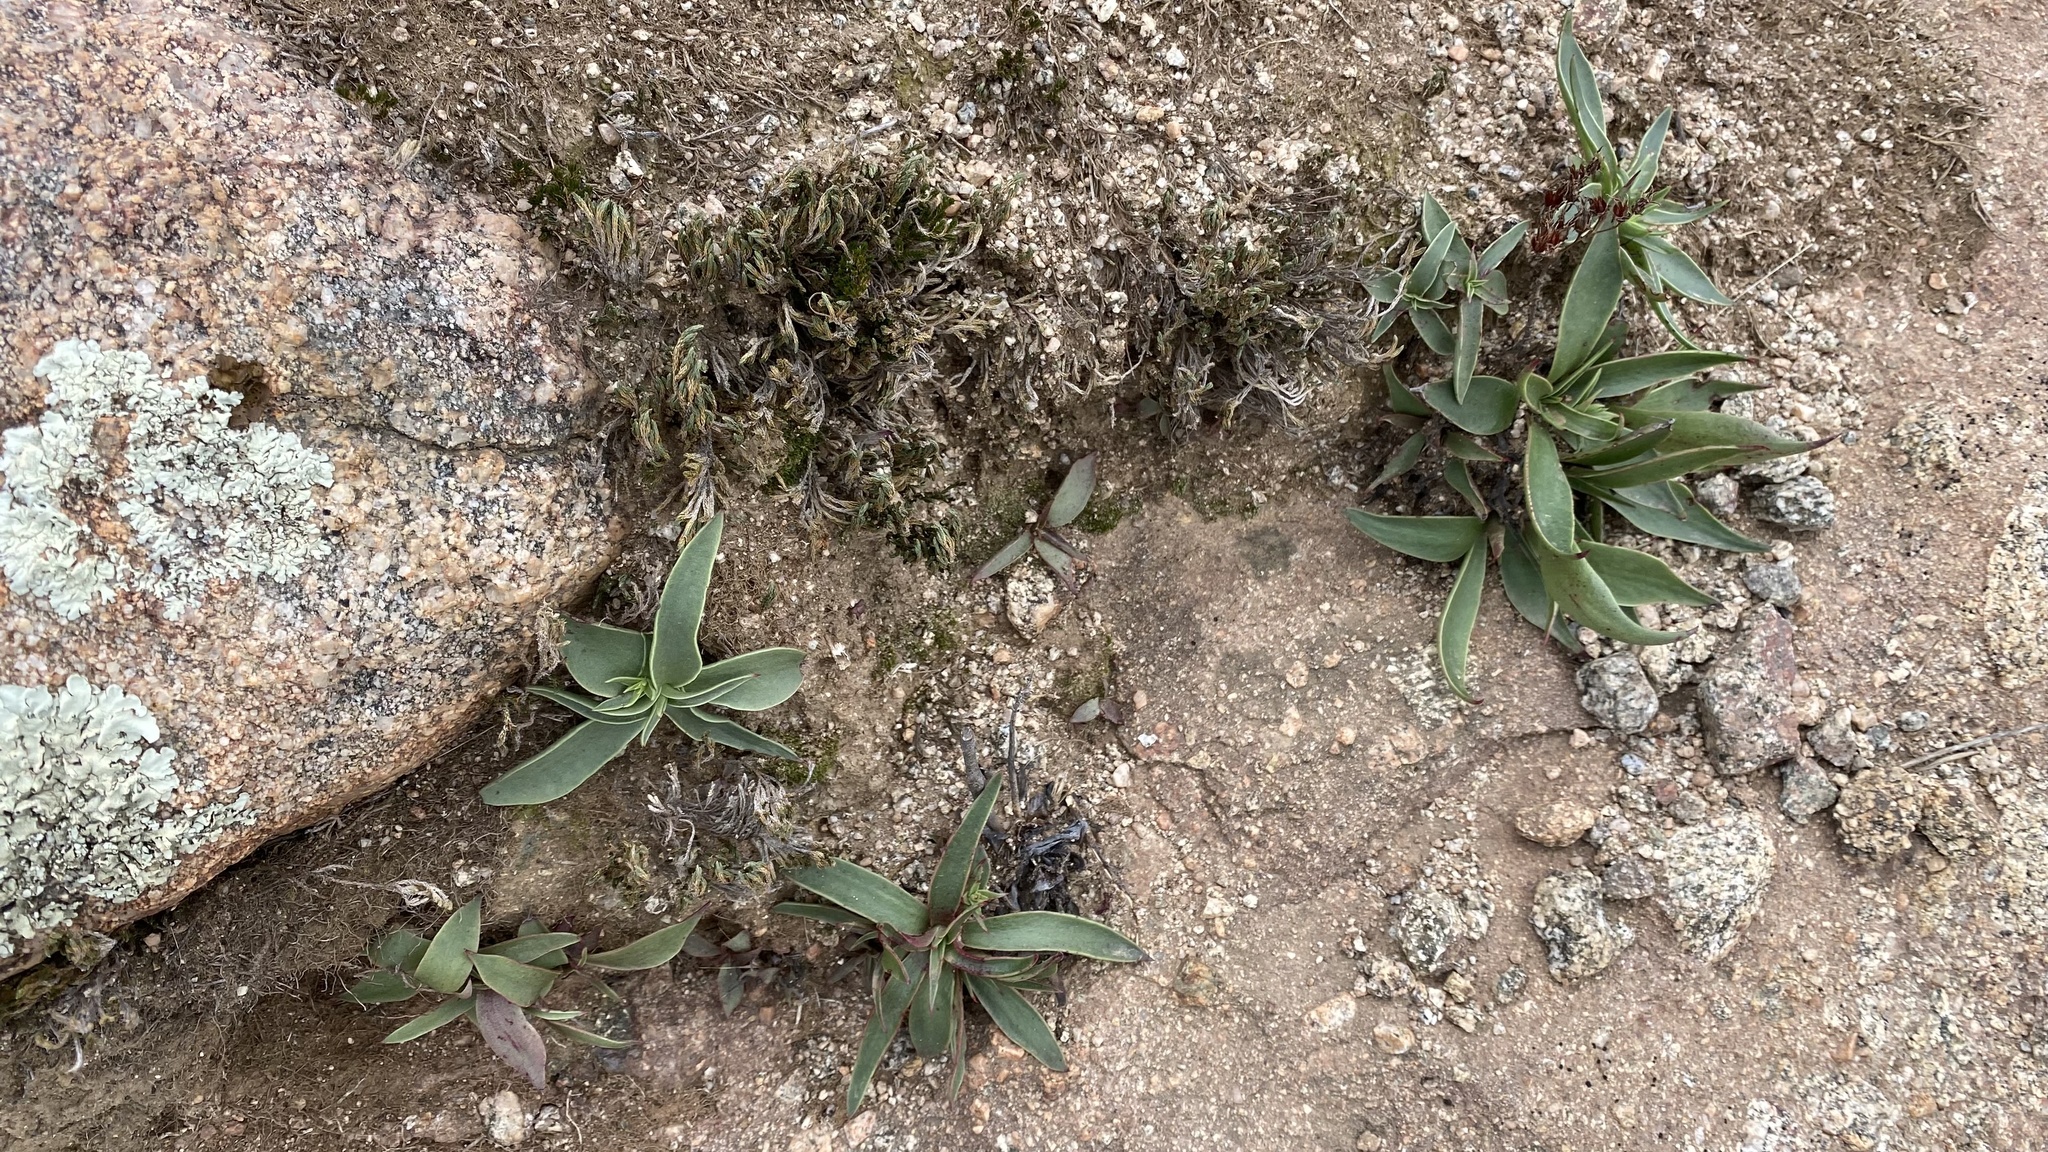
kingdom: Plantae
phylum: Tracheophyta
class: Magnoliopsida
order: Saxifragales
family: Crassulaceae
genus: Dudleya
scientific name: Dudleya lanceolata
